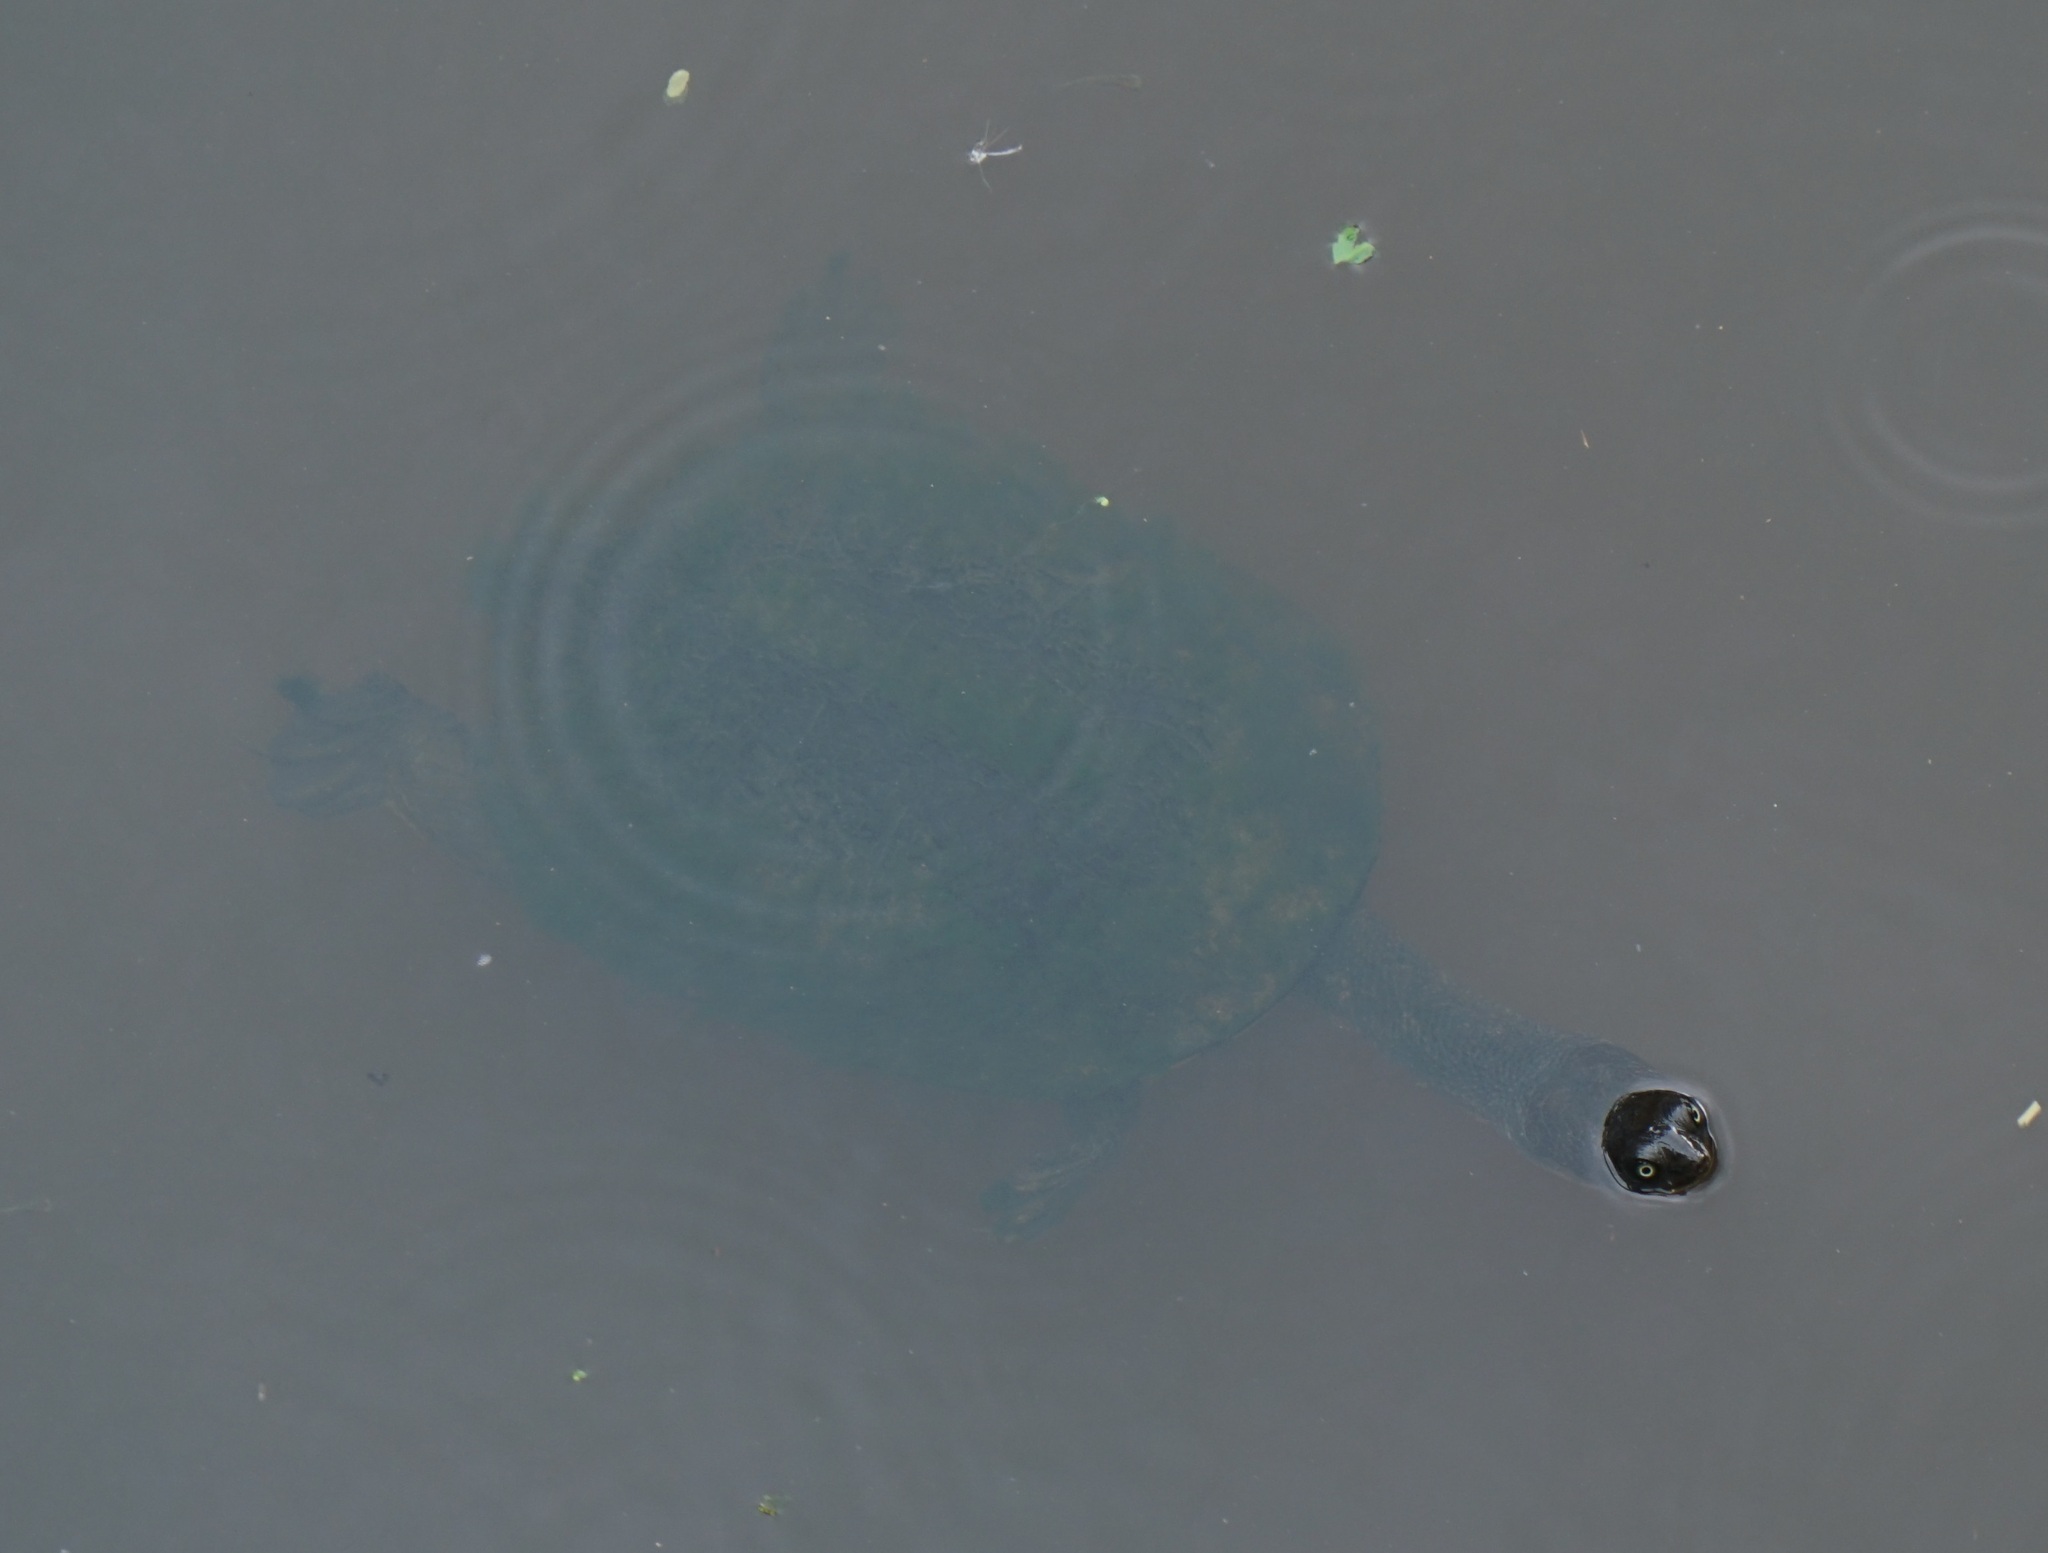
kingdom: Animalia
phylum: Chordata
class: Testudines
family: Chelidae
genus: Chelodina
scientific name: Chelodina longicollis
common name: Eastern snake-necked turtle
